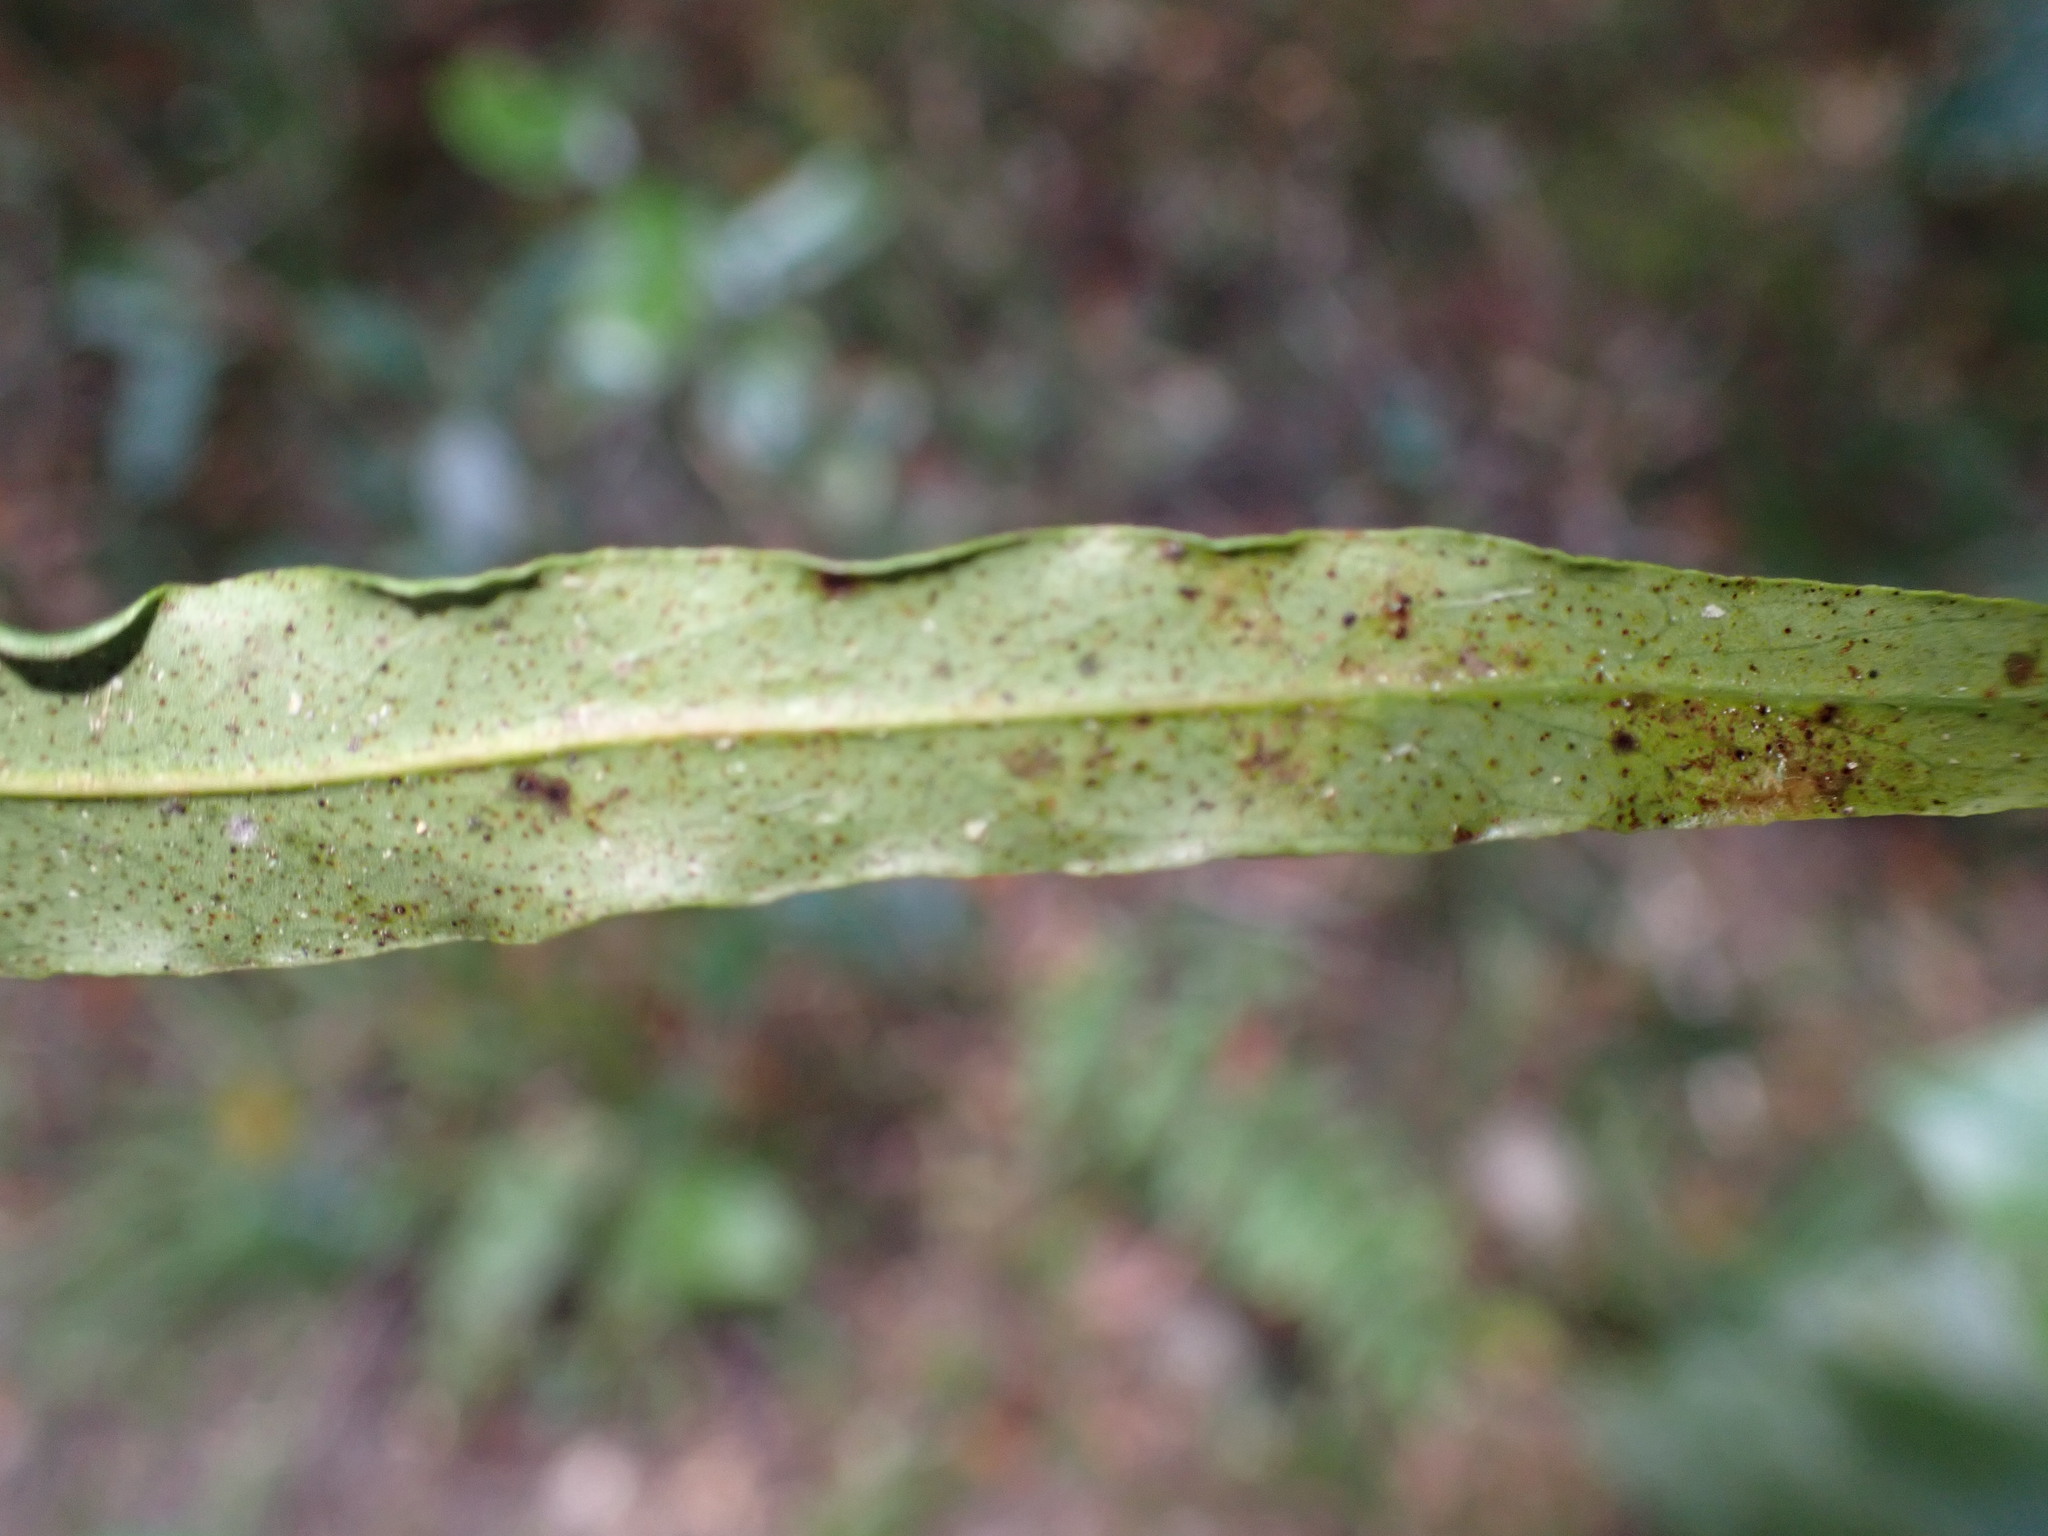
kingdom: Plantae
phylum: Tracheophyta
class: Magnoliopsida
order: Proteales
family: Proteaceae
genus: Faurea
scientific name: Faurea macnaughtonii
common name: Egossa beech
